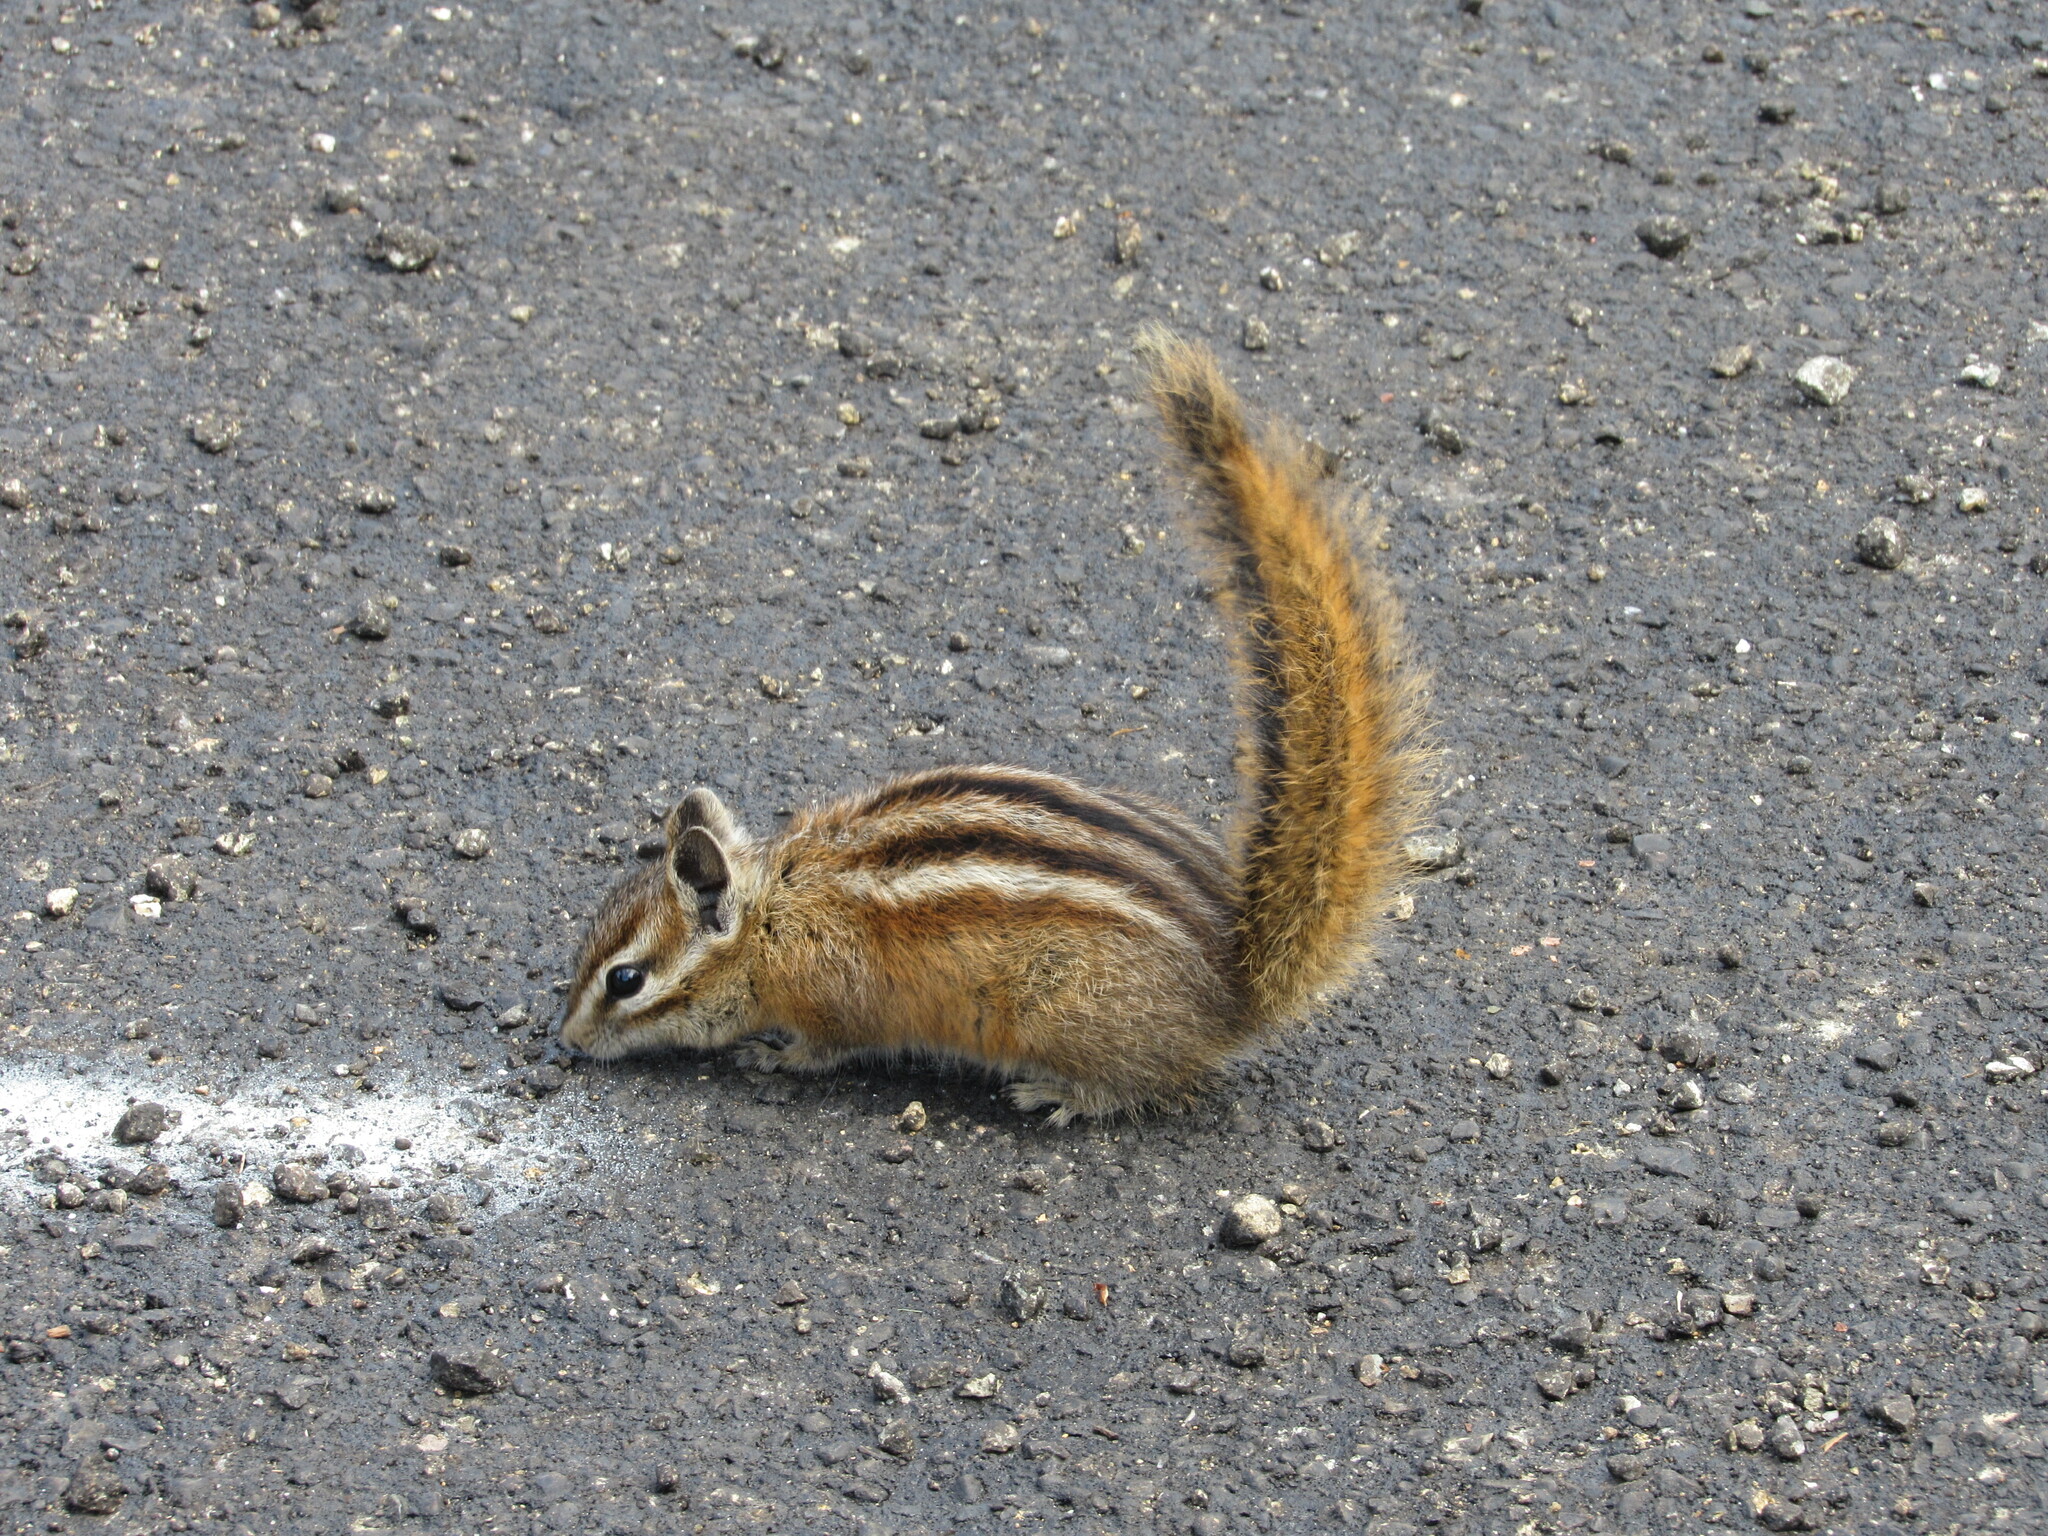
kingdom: Animalia
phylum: Chordata
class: Mammalia
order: Rodentia
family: Sciuridae
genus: Tamias
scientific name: Tamias amoenus
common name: Yellow-pine chipmunk
